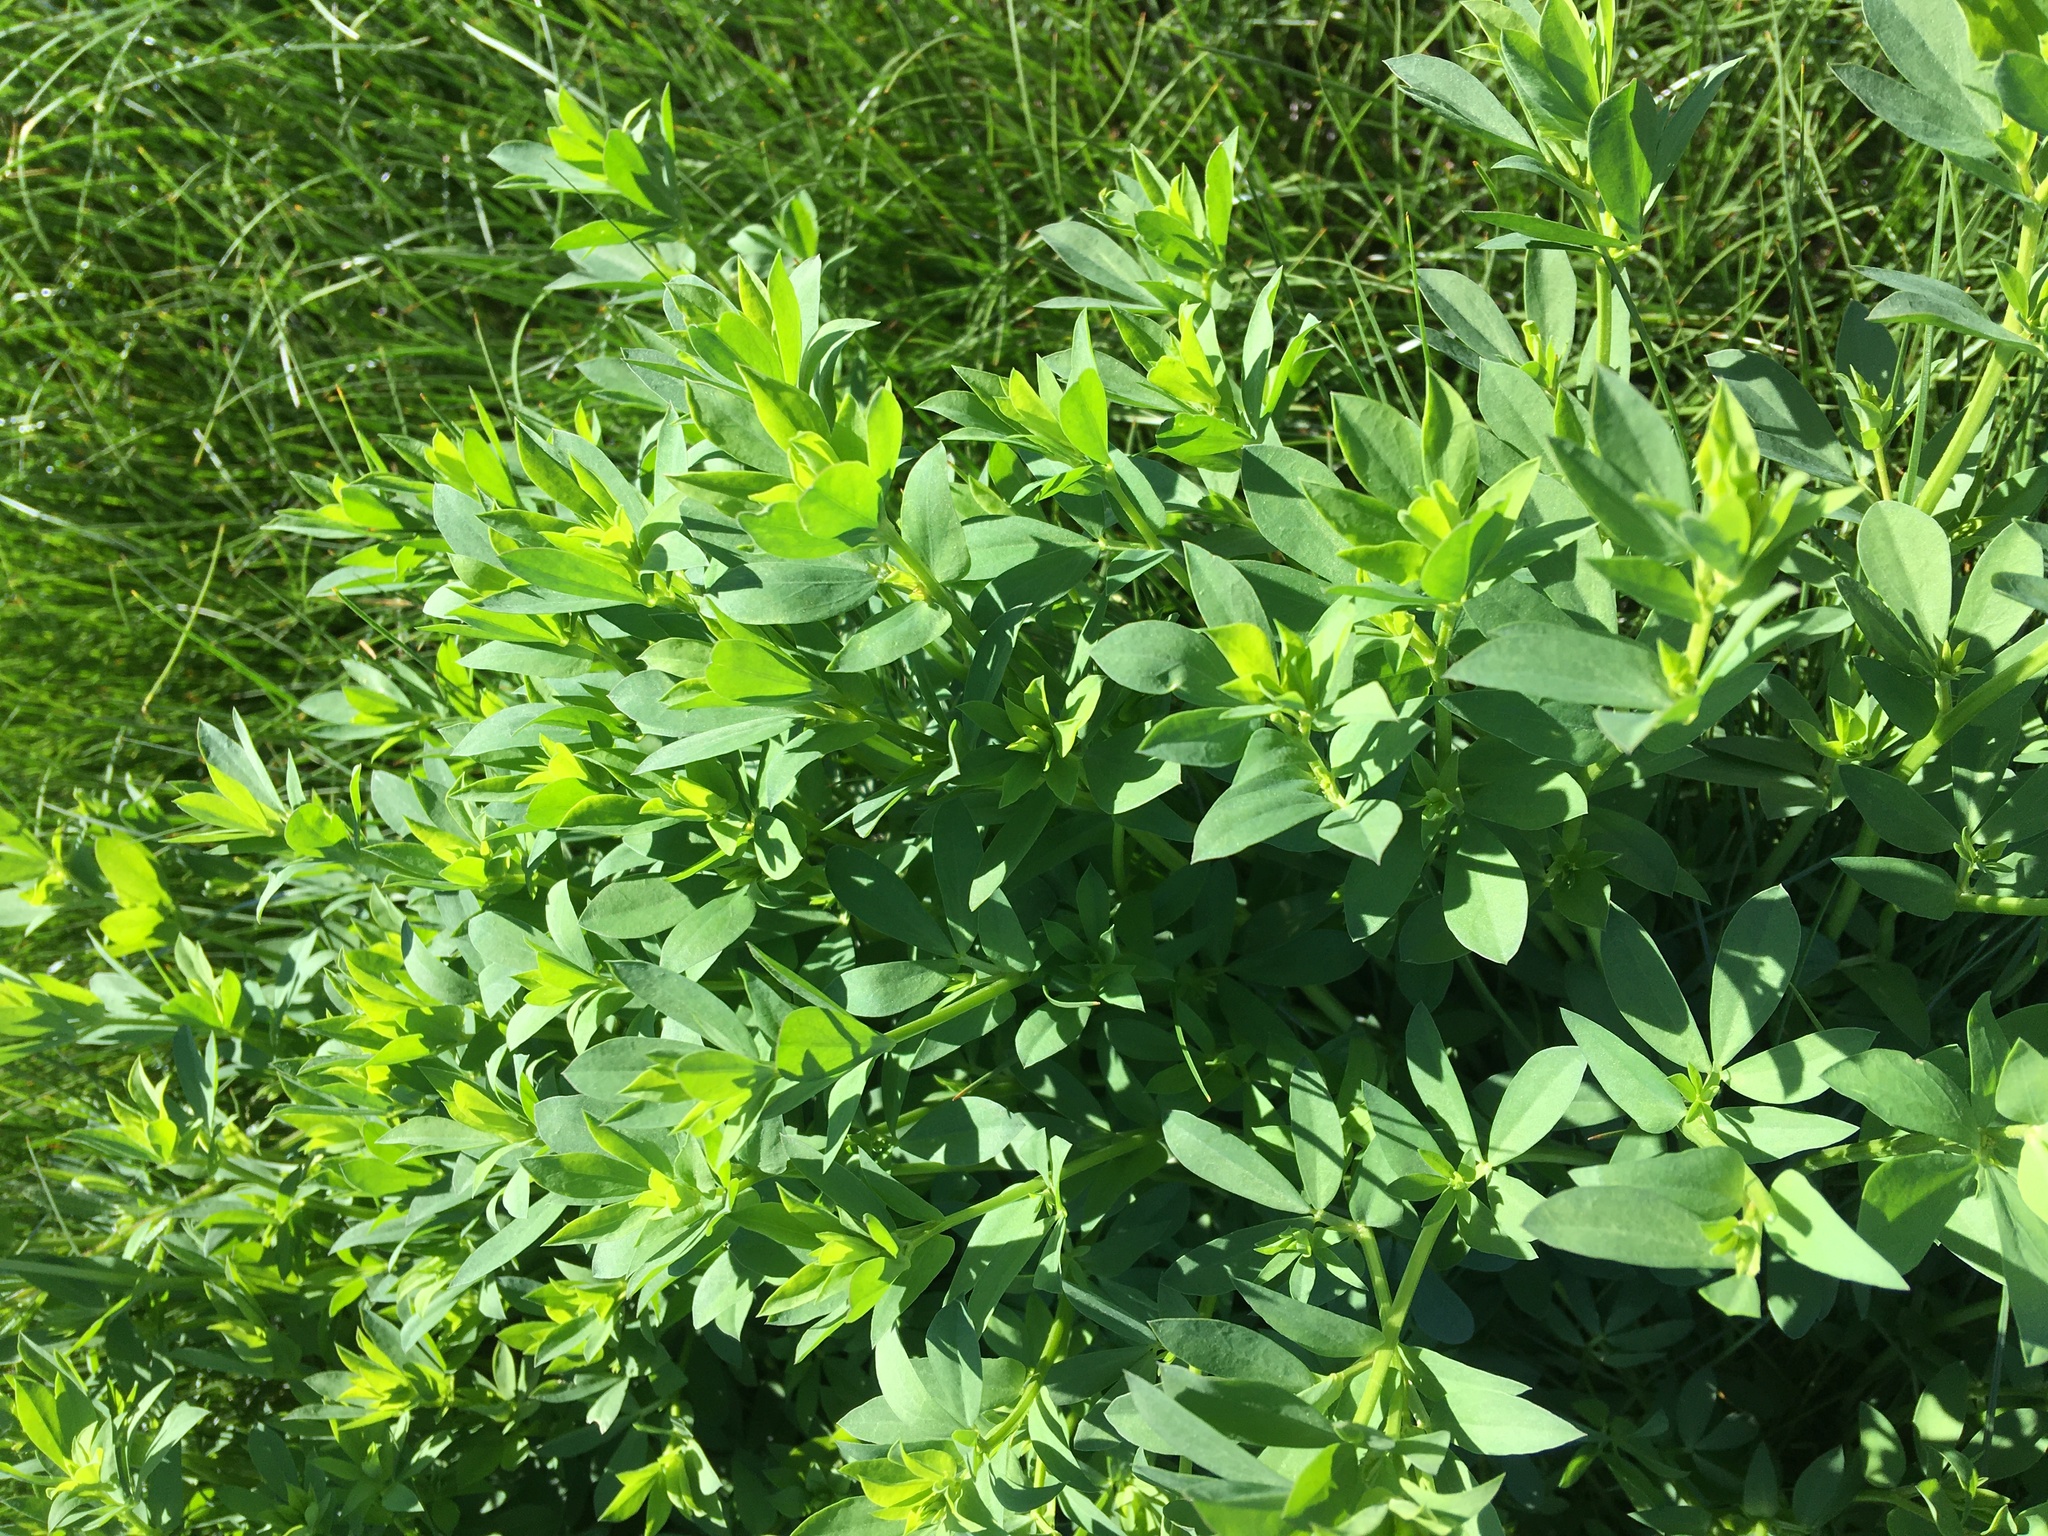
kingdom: Plantae
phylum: Tracheophyta
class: Magnoliopsida
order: Fabales
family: Fabaceae
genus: Melilotus
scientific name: Melilotus albus
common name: White melilot
